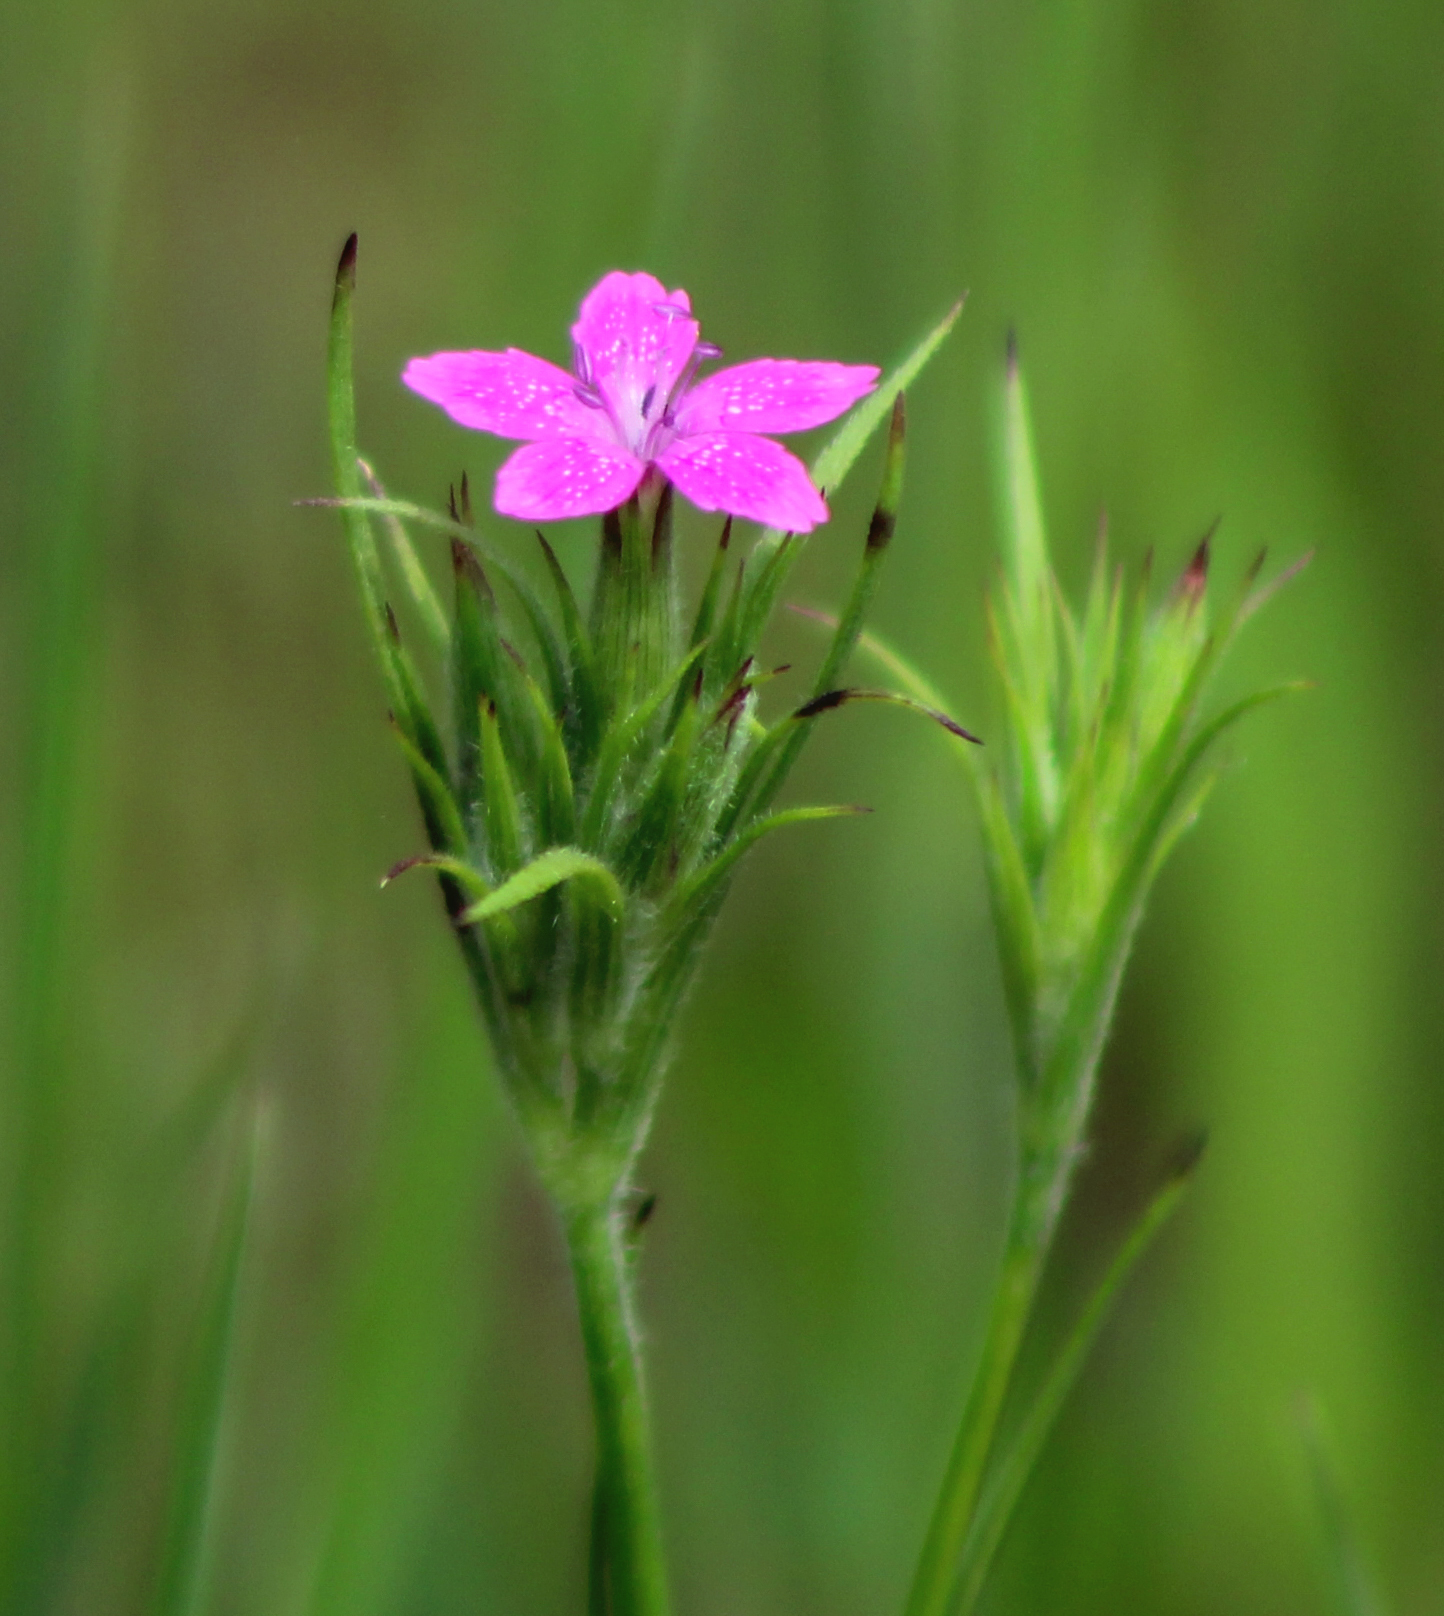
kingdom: Plantae
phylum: Tracheophyta
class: Magnoliopsida
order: Caryophyllales
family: Caryophyllaceae
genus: Dianthus
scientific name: Dianthus armeria
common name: Deptford pink
